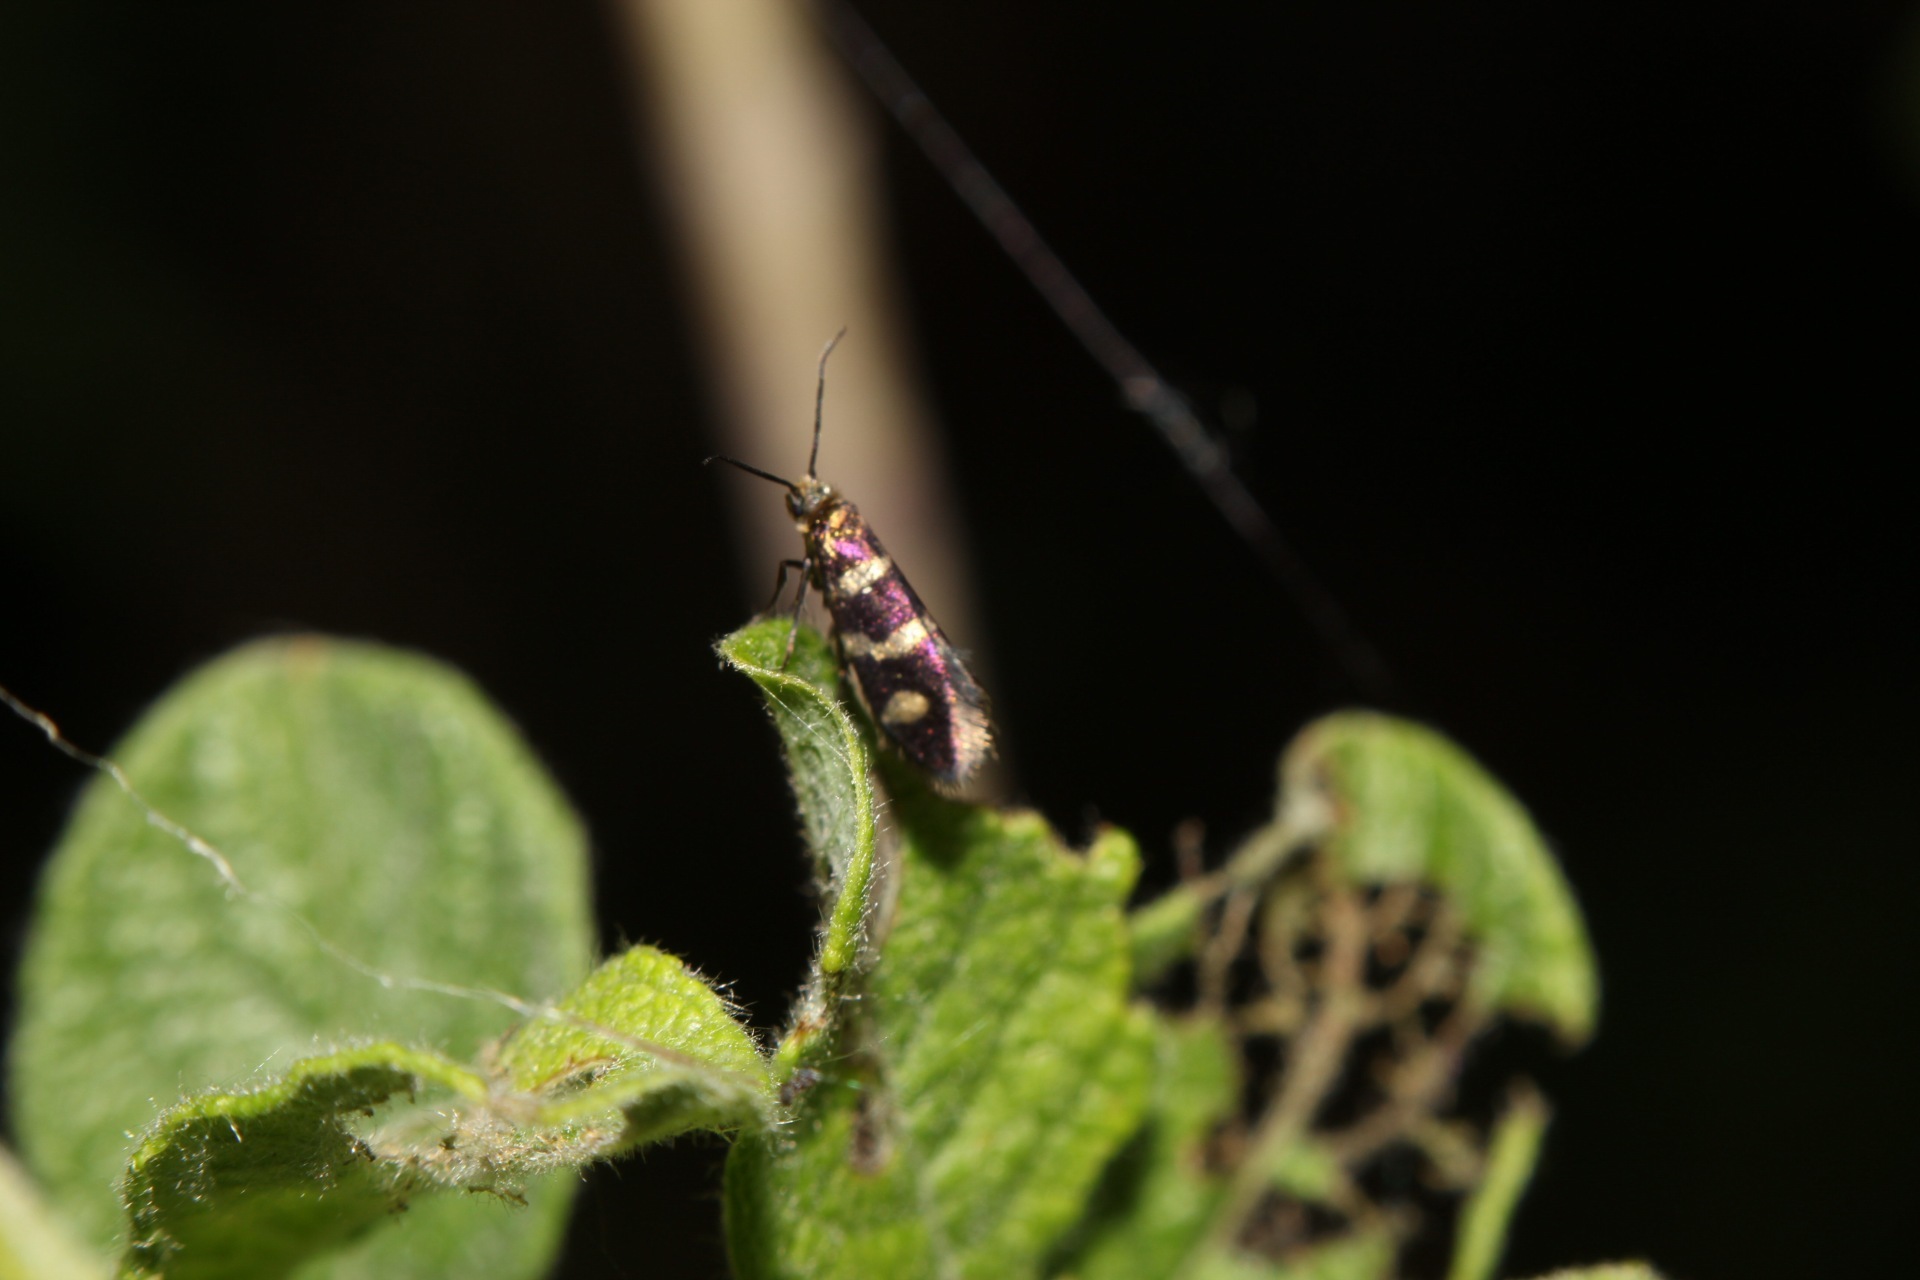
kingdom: Animalia
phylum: Arthropoda
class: Insecta
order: Lepidoptera
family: Micropterigidae
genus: Micropterix
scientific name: Micropterix aureatella
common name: Yellow-barred gold
